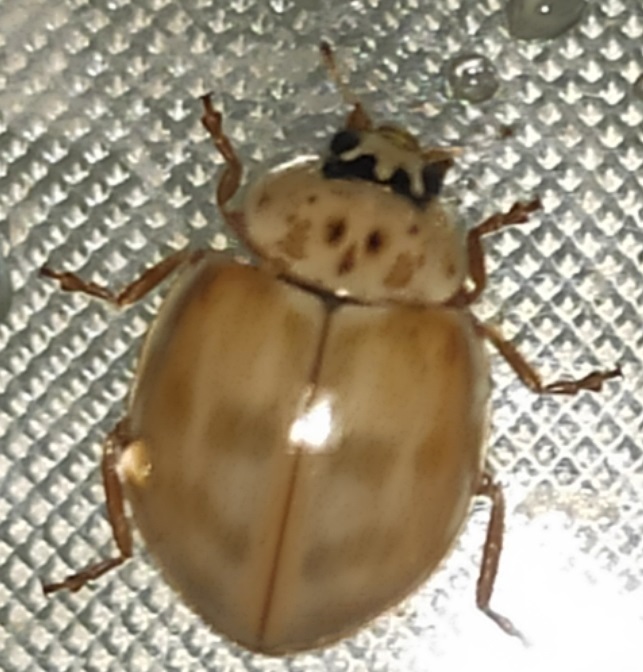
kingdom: Animalia
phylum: Arthropoda
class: Insecta
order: Coleoptera
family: Coccinellidae
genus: Harmonia
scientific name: Harmonia quadripunctata
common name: Cream-streaked ladybird
